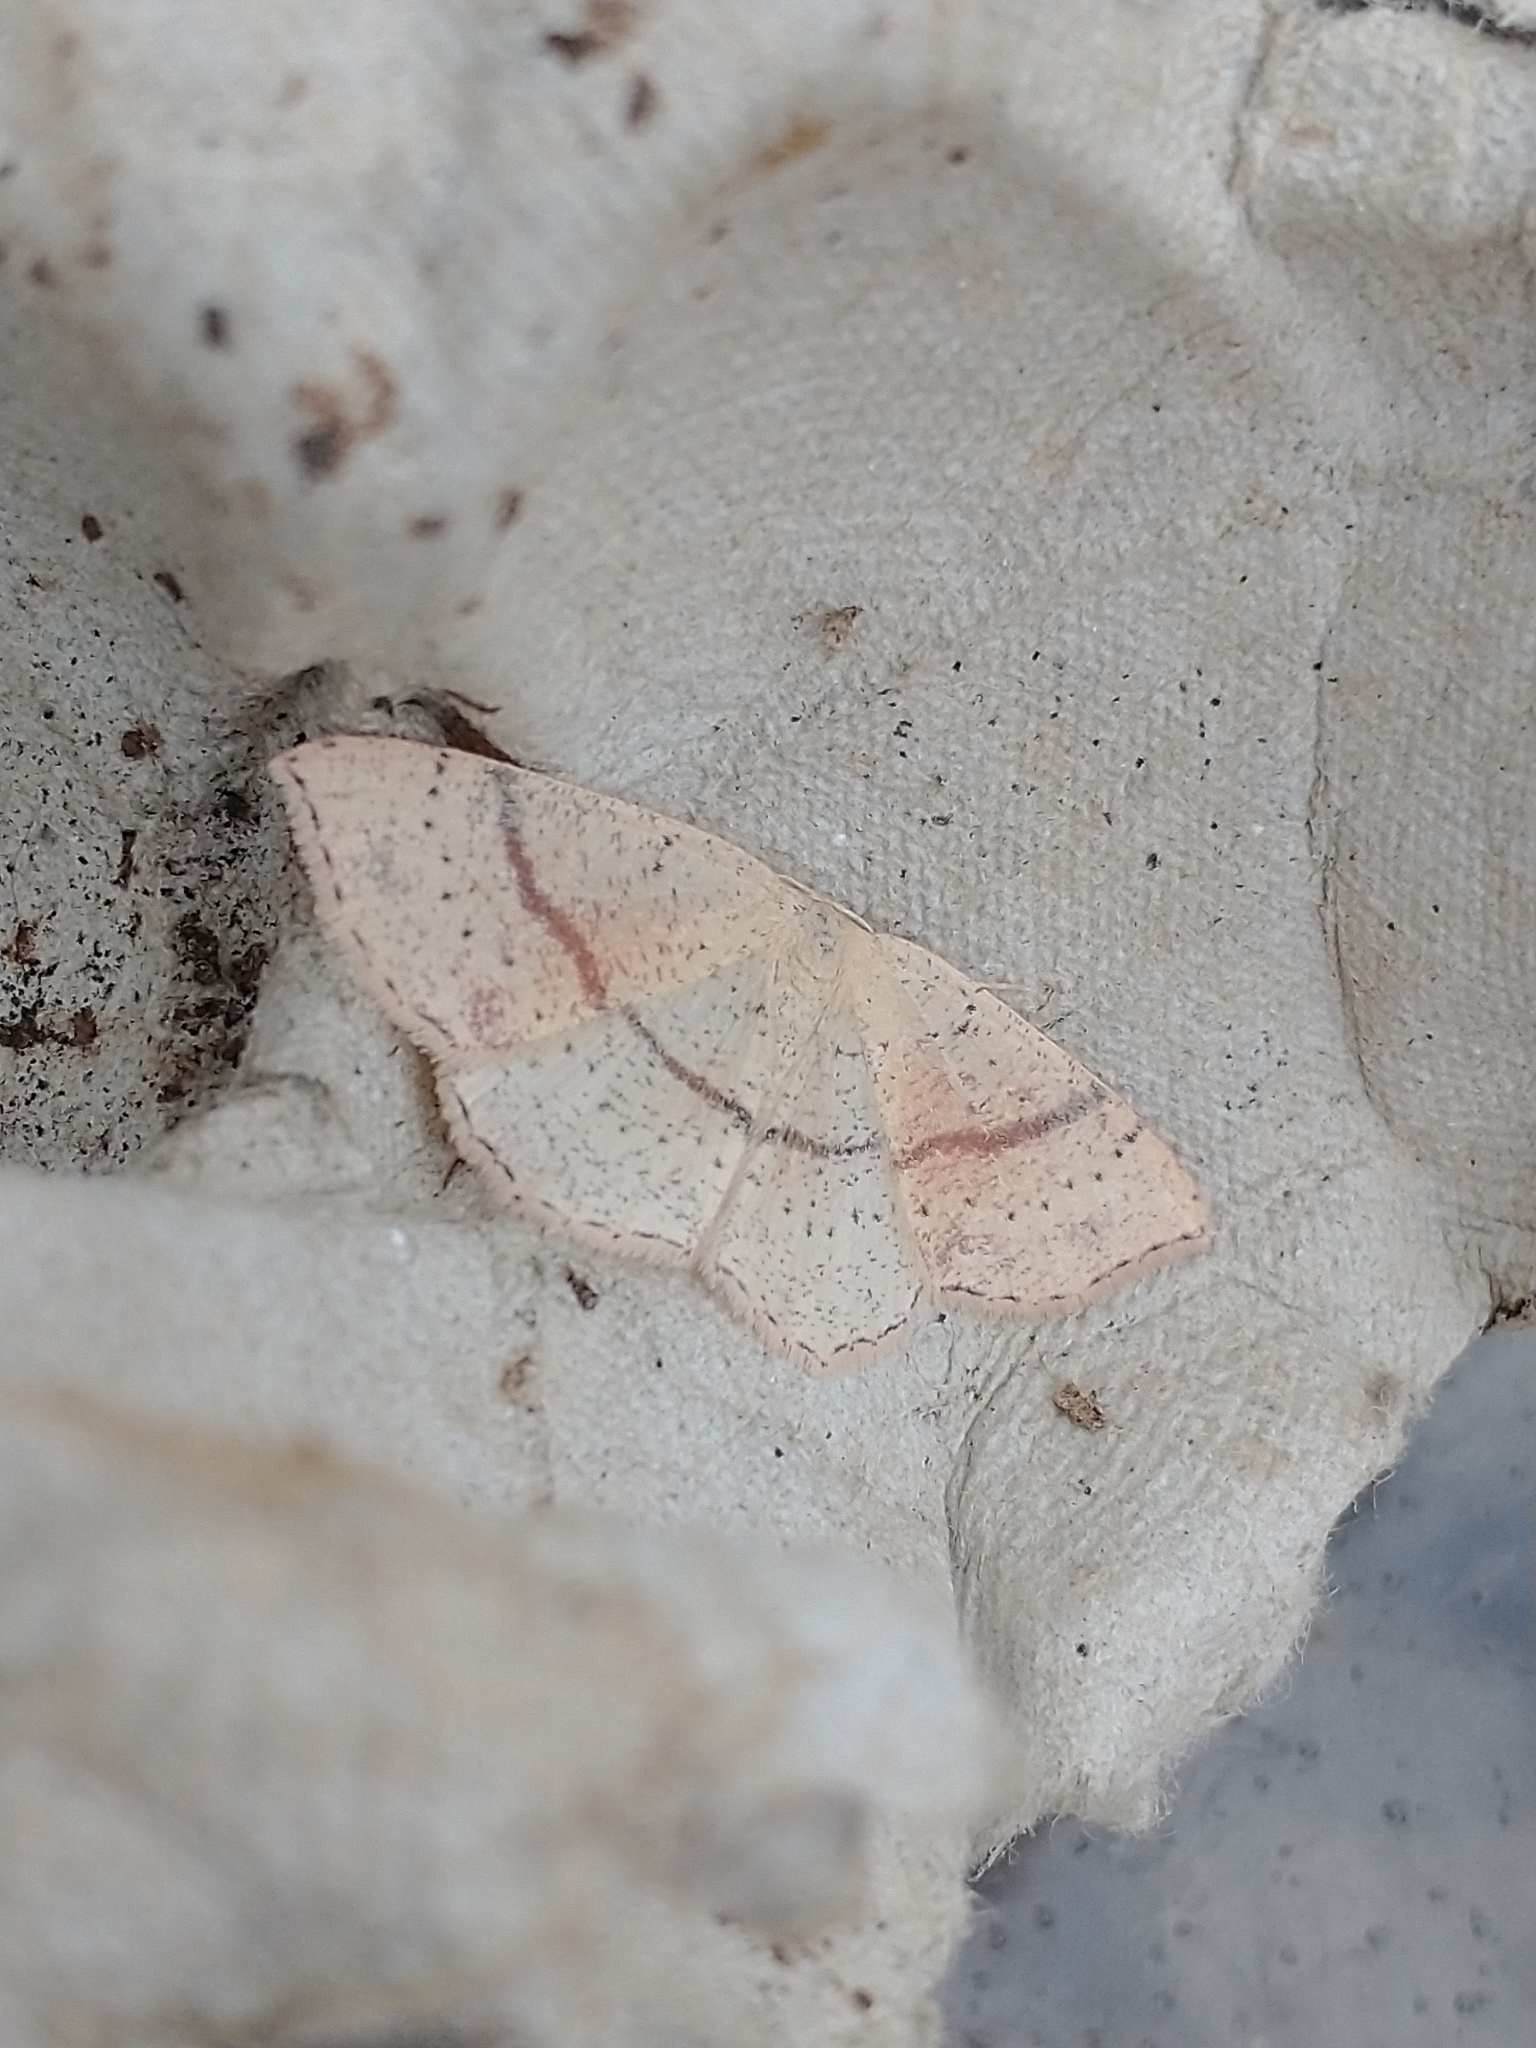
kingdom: Animalia
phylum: Arthropoda
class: Insecta
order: Lepidoptera
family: Geometridae
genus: Cyclophora
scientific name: Cyclophora punctaria
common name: Maiden's blush
